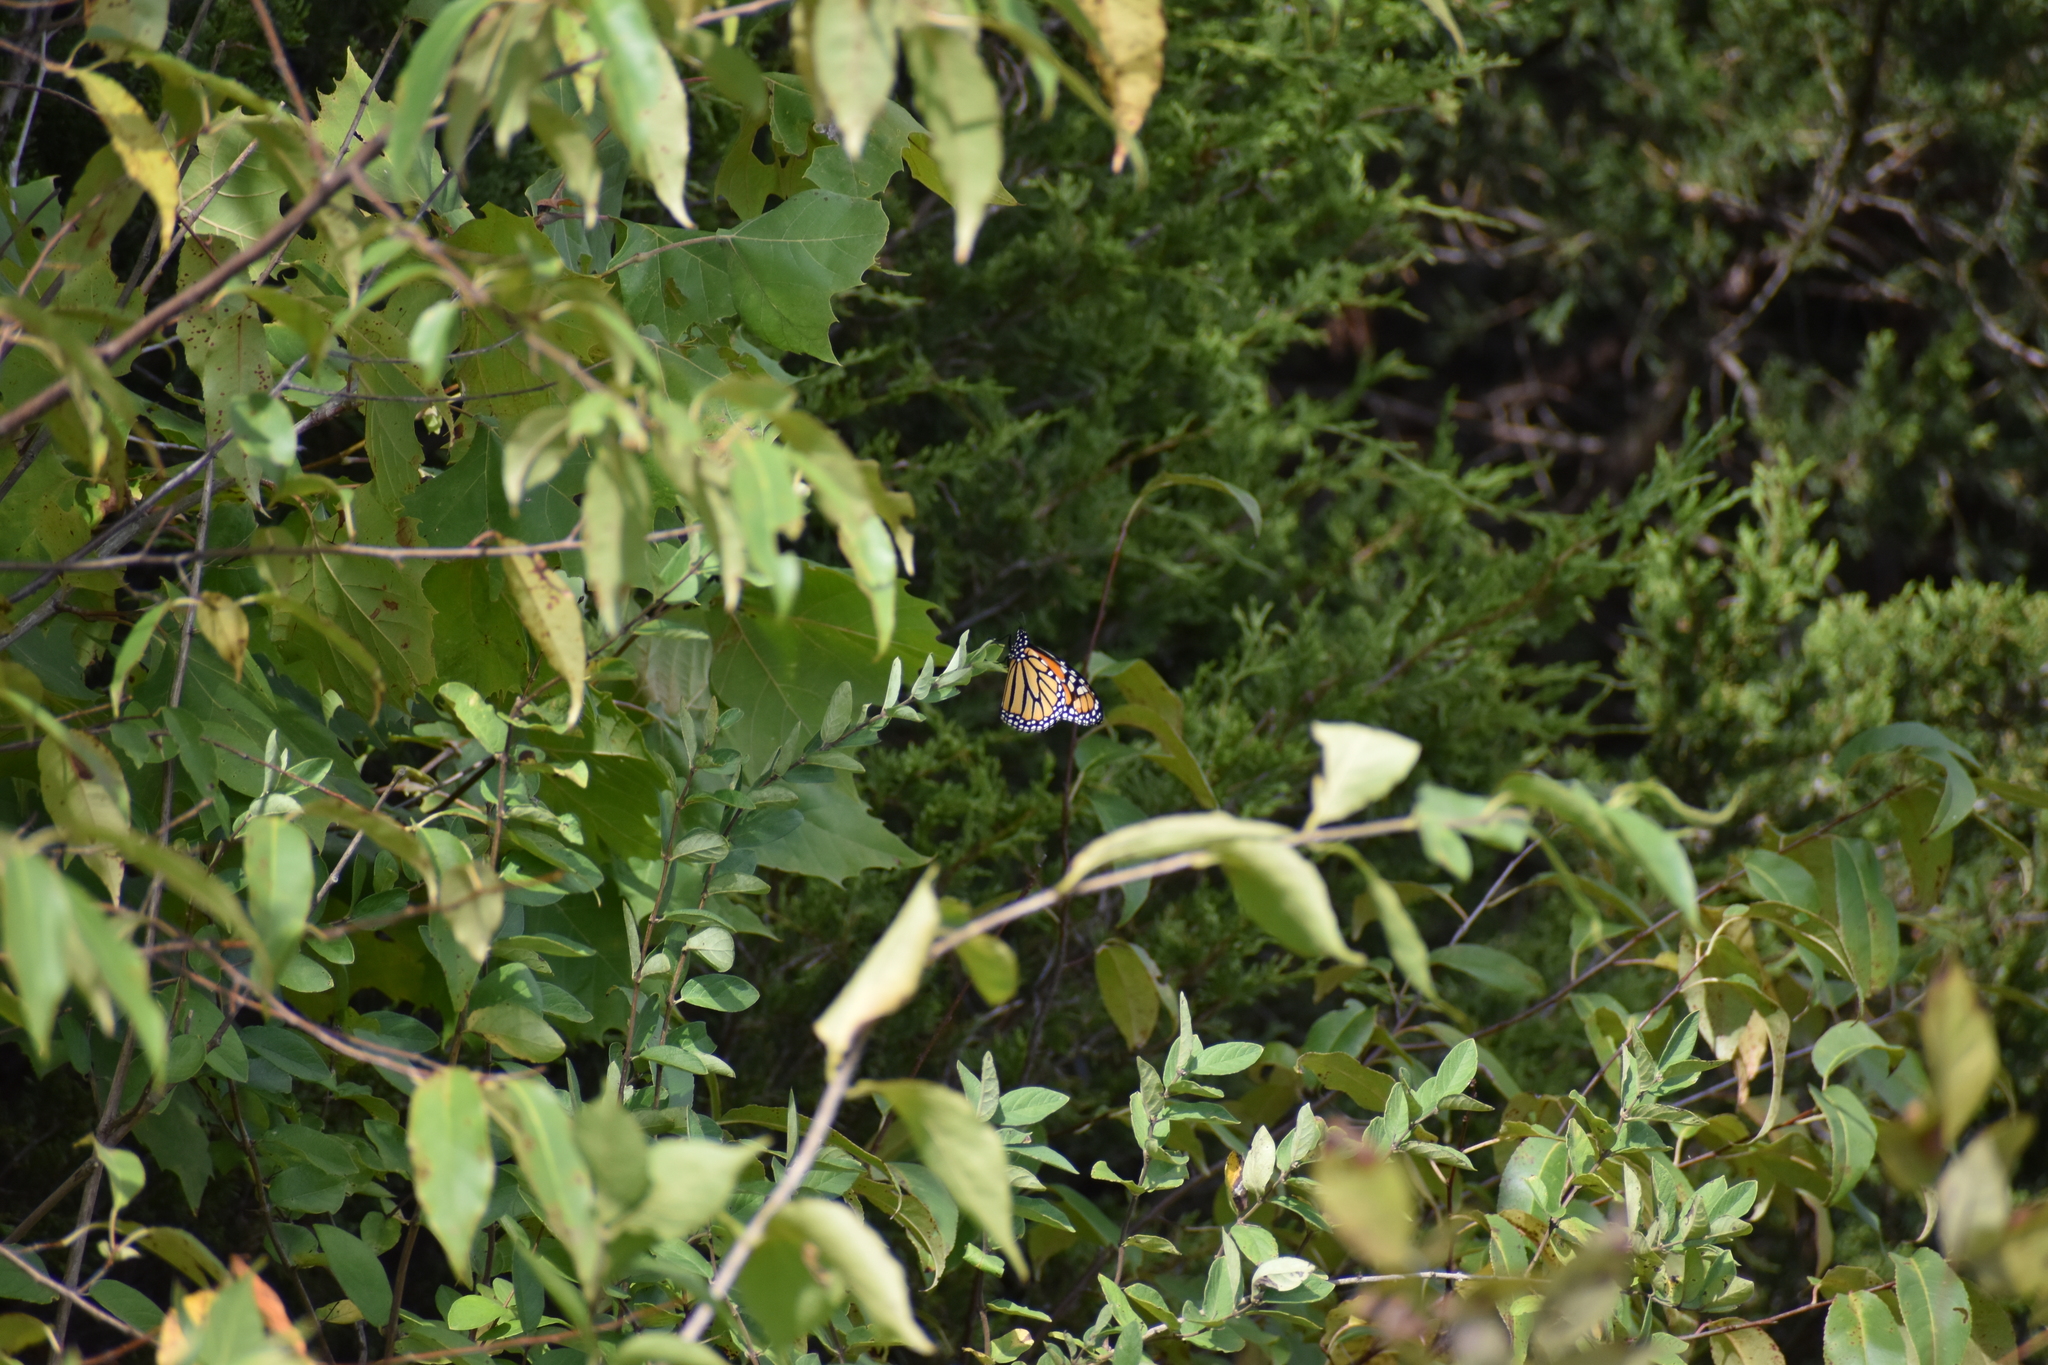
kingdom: Animalia
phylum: Arthropoda
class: Insecta
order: Lepidoptera
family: Nymphalidae
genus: Danaus
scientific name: Danaus plexippus
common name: Monarch
